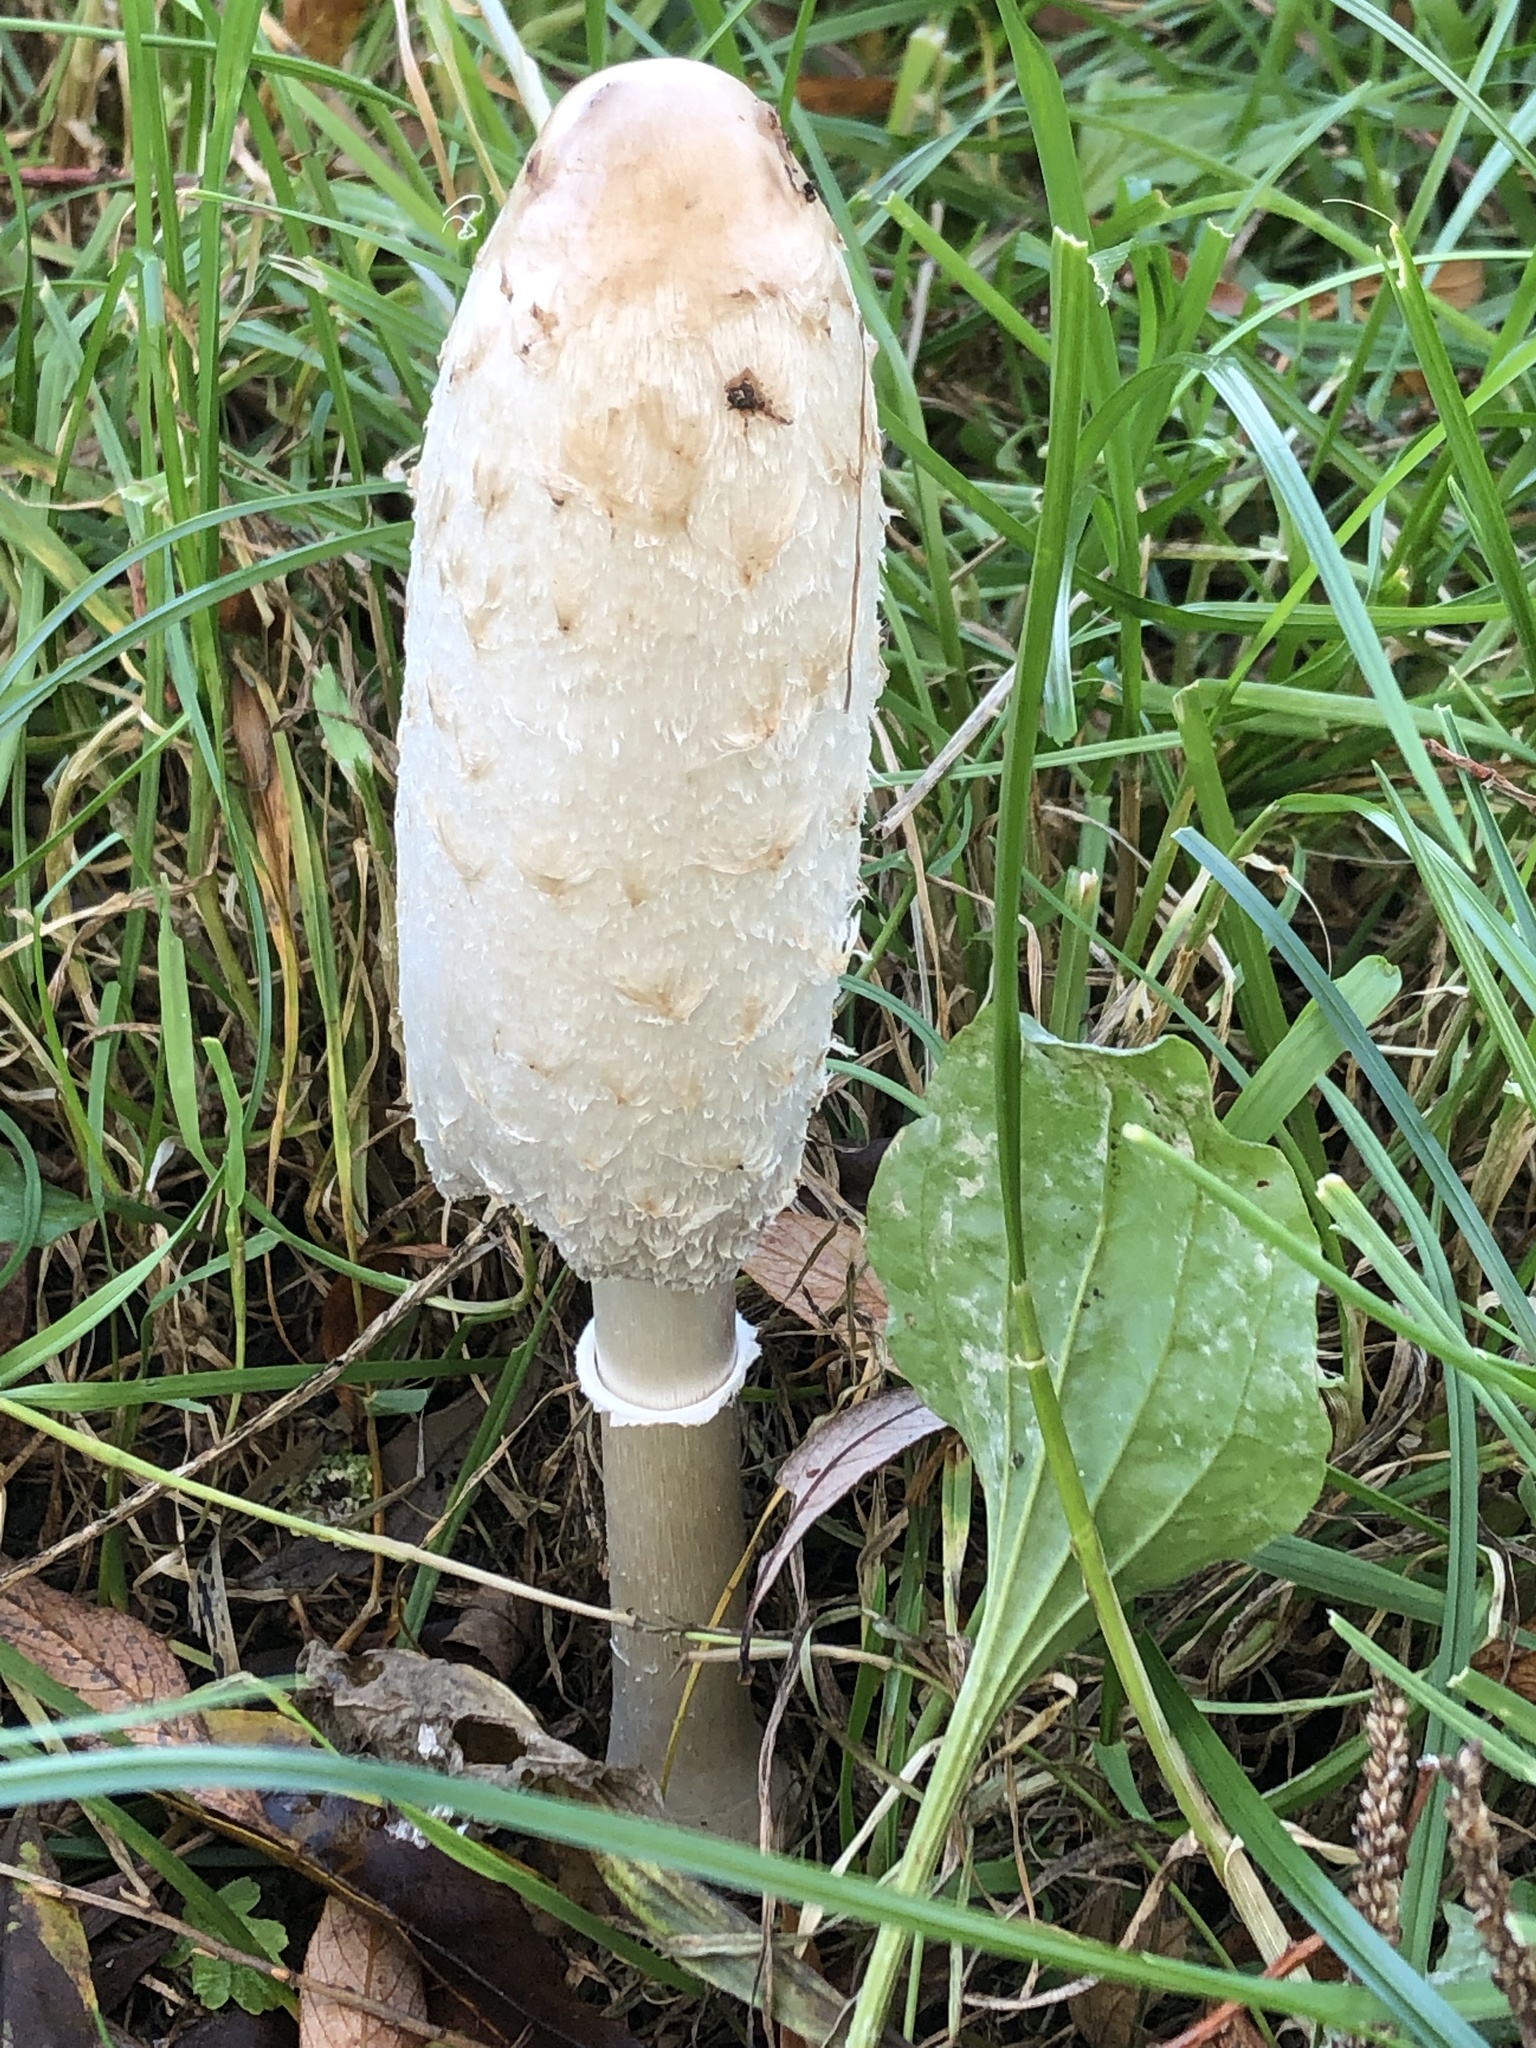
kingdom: Fungi
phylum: Basidiomycota
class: Agaricomycetes
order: Agaricales
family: Agaricaceae
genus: Coprinus
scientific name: Coprinus comatus
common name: Lawyer's wig
